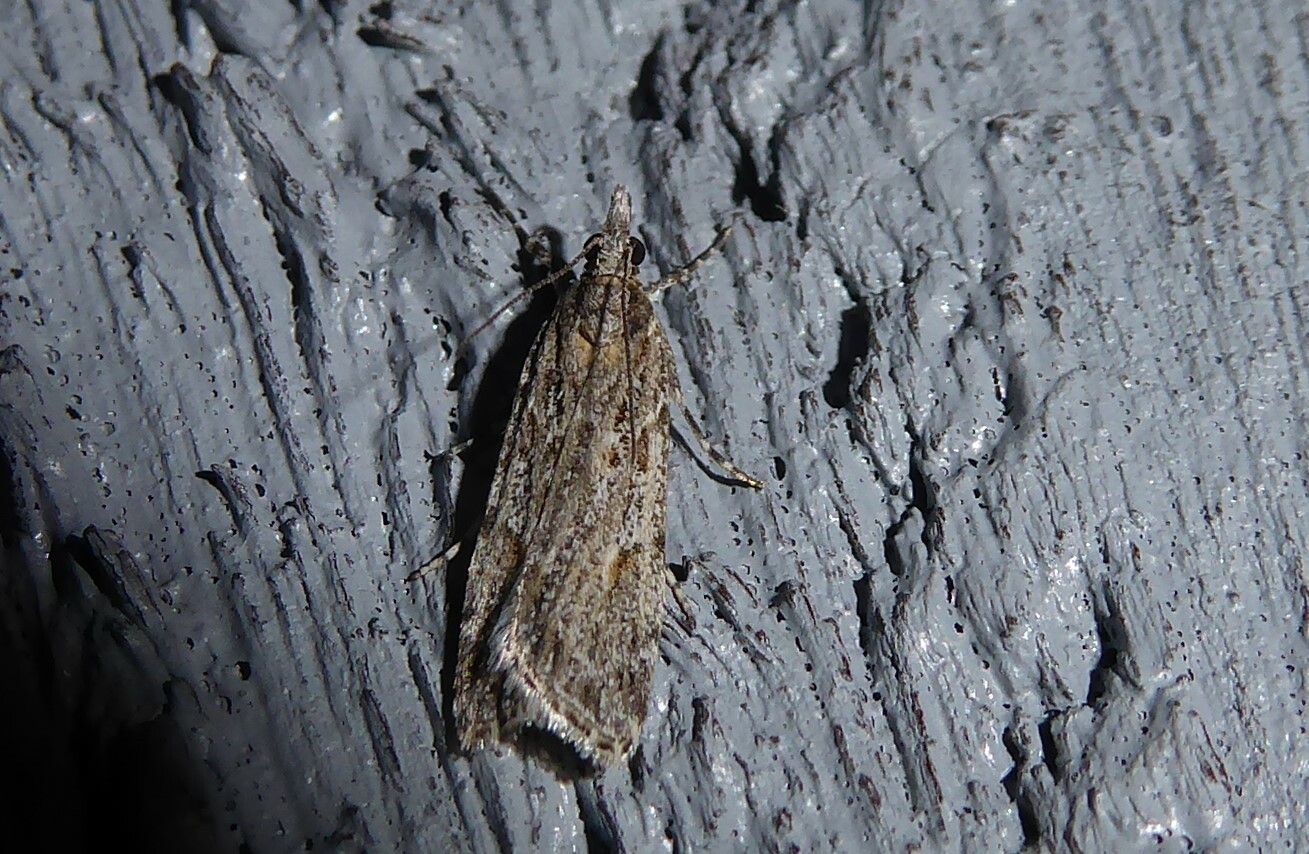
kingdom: Animalia
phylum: Arthropoda
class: Insecta
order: Lepidoptera
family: Crambidae
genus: Scoparia
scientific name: Scoparia chalicodes
